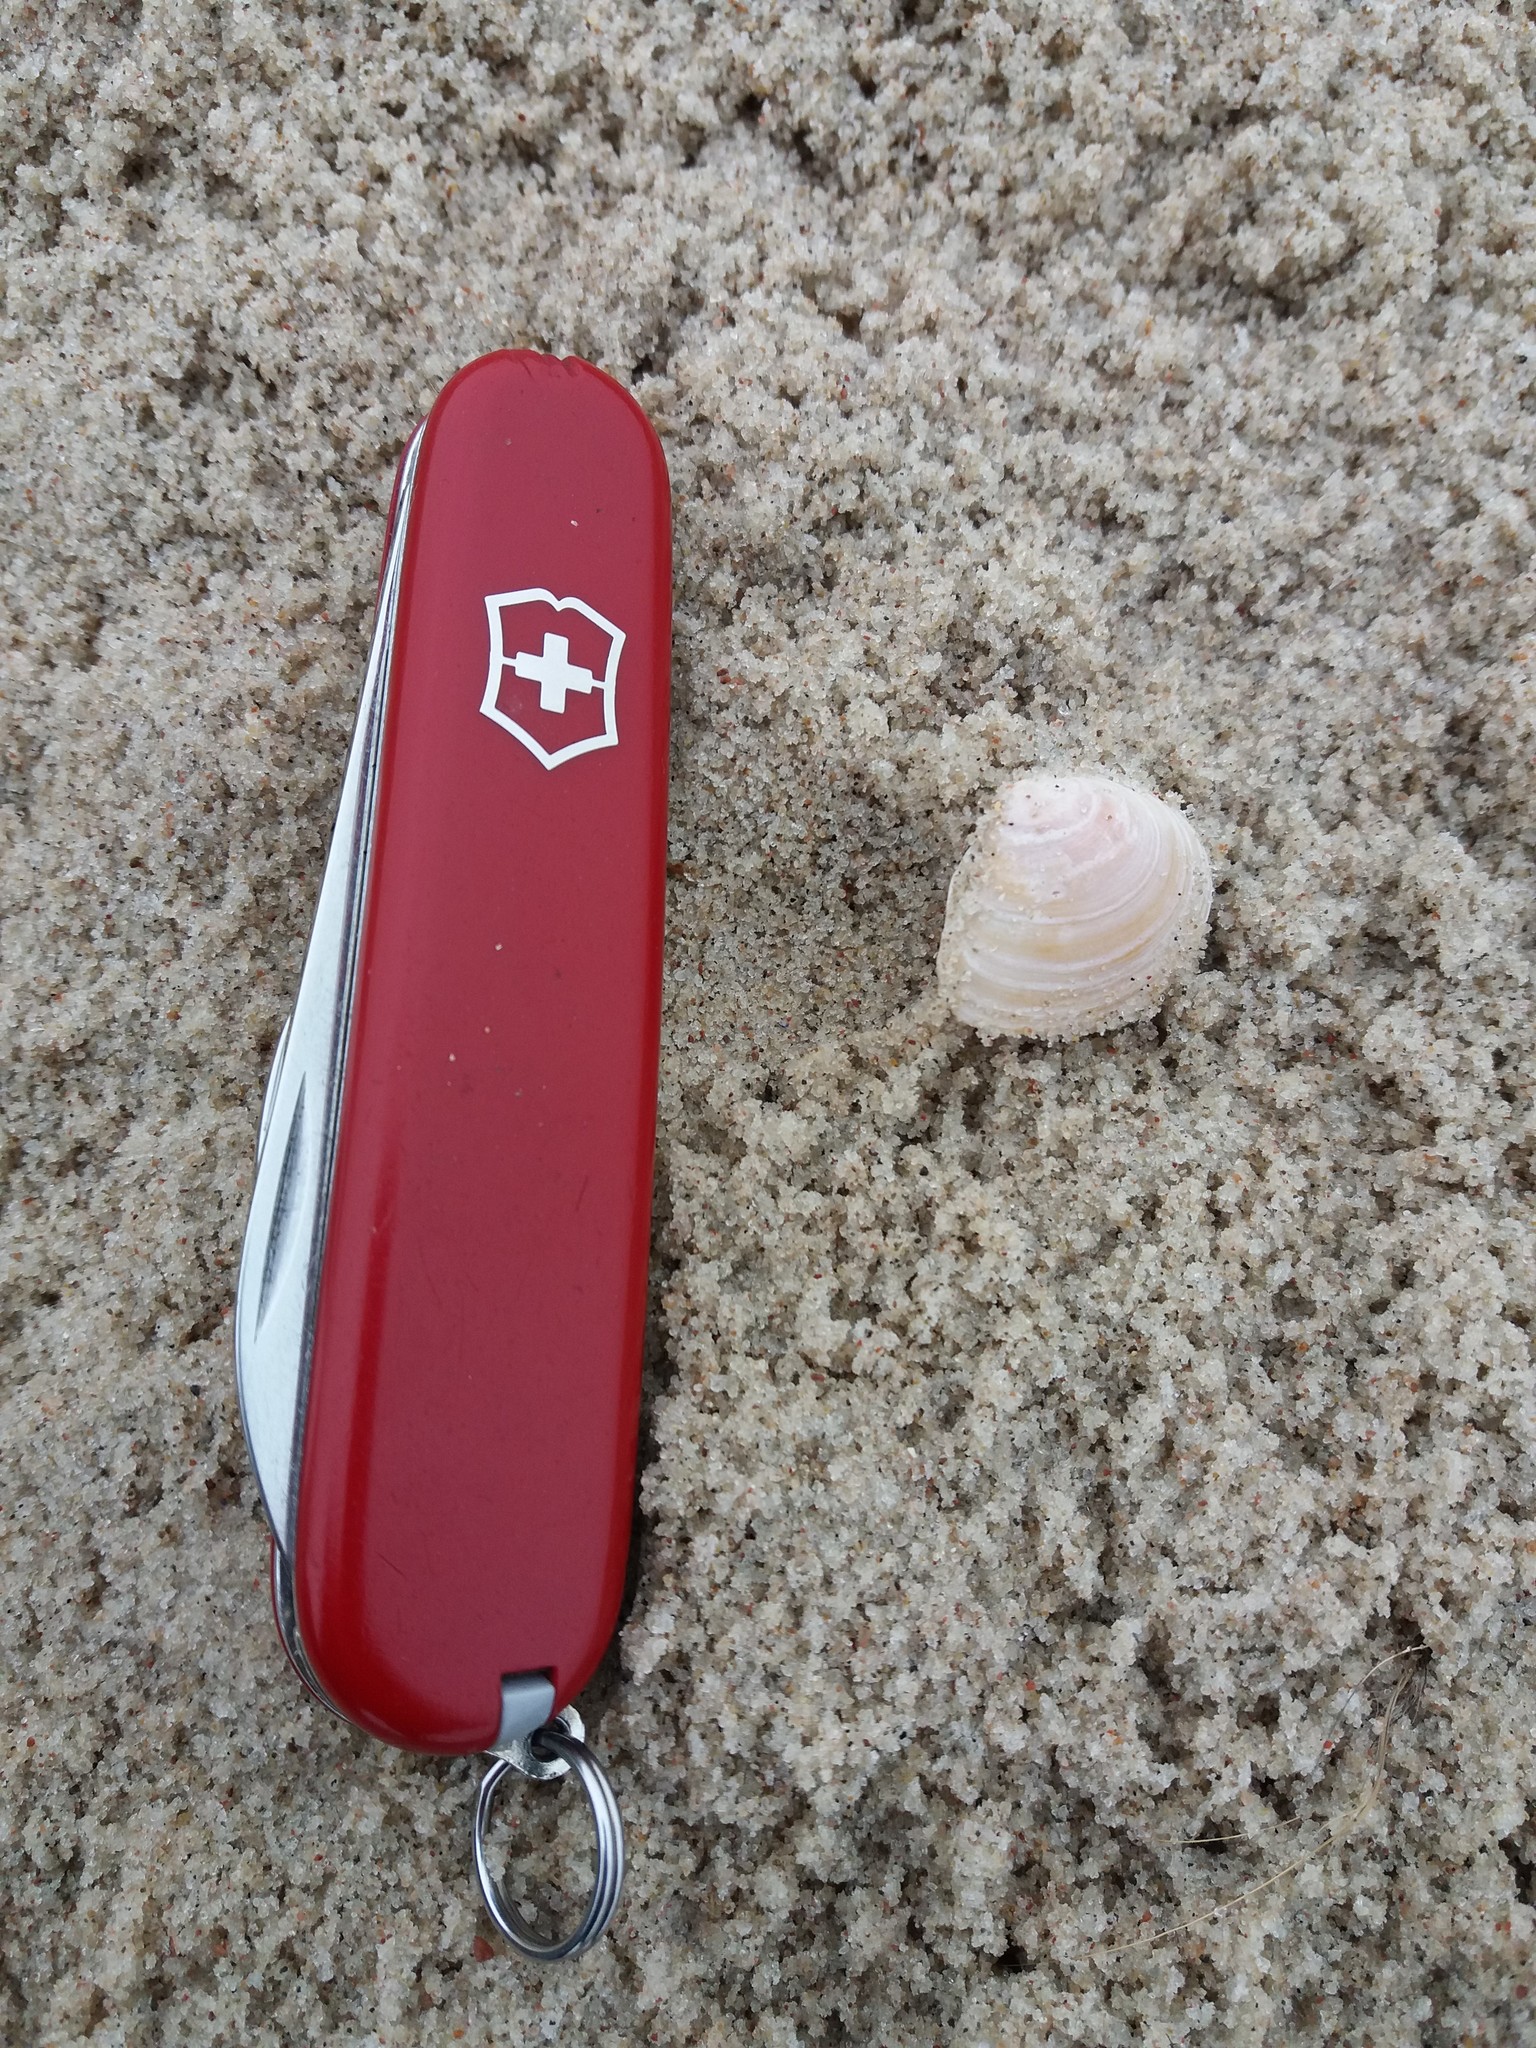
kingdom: Animalia
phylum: Mollusca
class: Bivalvia
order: Cardiida
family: Tellinidae
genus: Macoma
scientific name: Macoma balthica
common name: Baltic tellin
